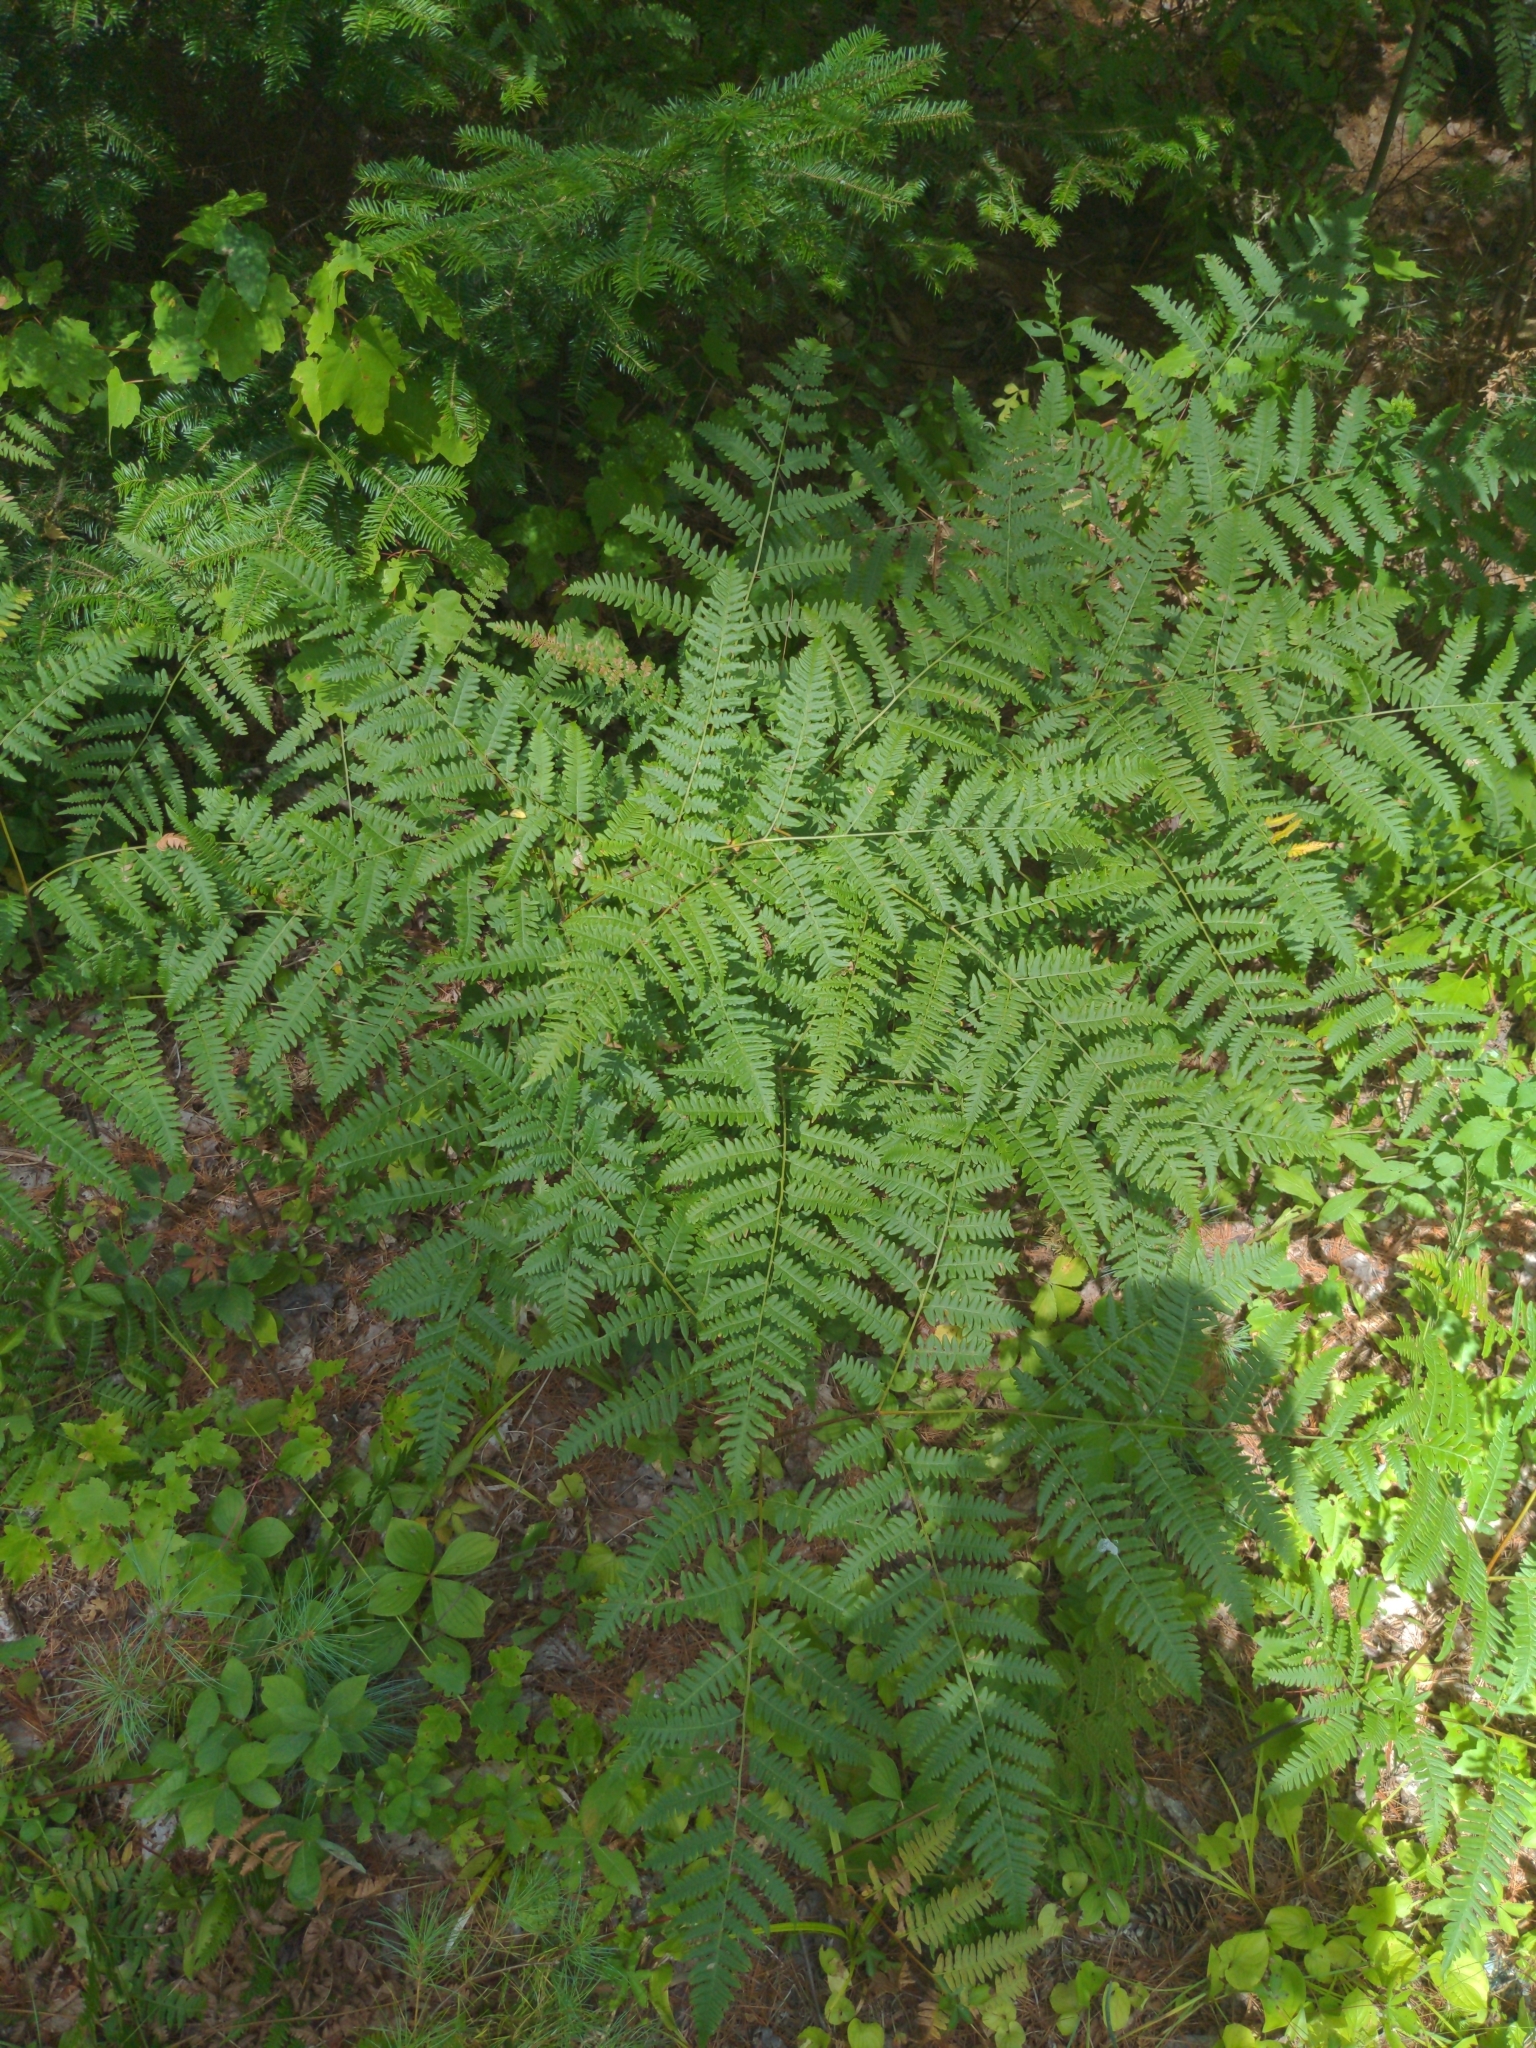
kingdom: Plantae
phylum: Tracheophyta
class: Polypodiopsida
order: Polypodiales
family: Dennstaedtiaceae
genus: Pteridium
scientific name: Pteridium aquilinum
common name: Bracken
